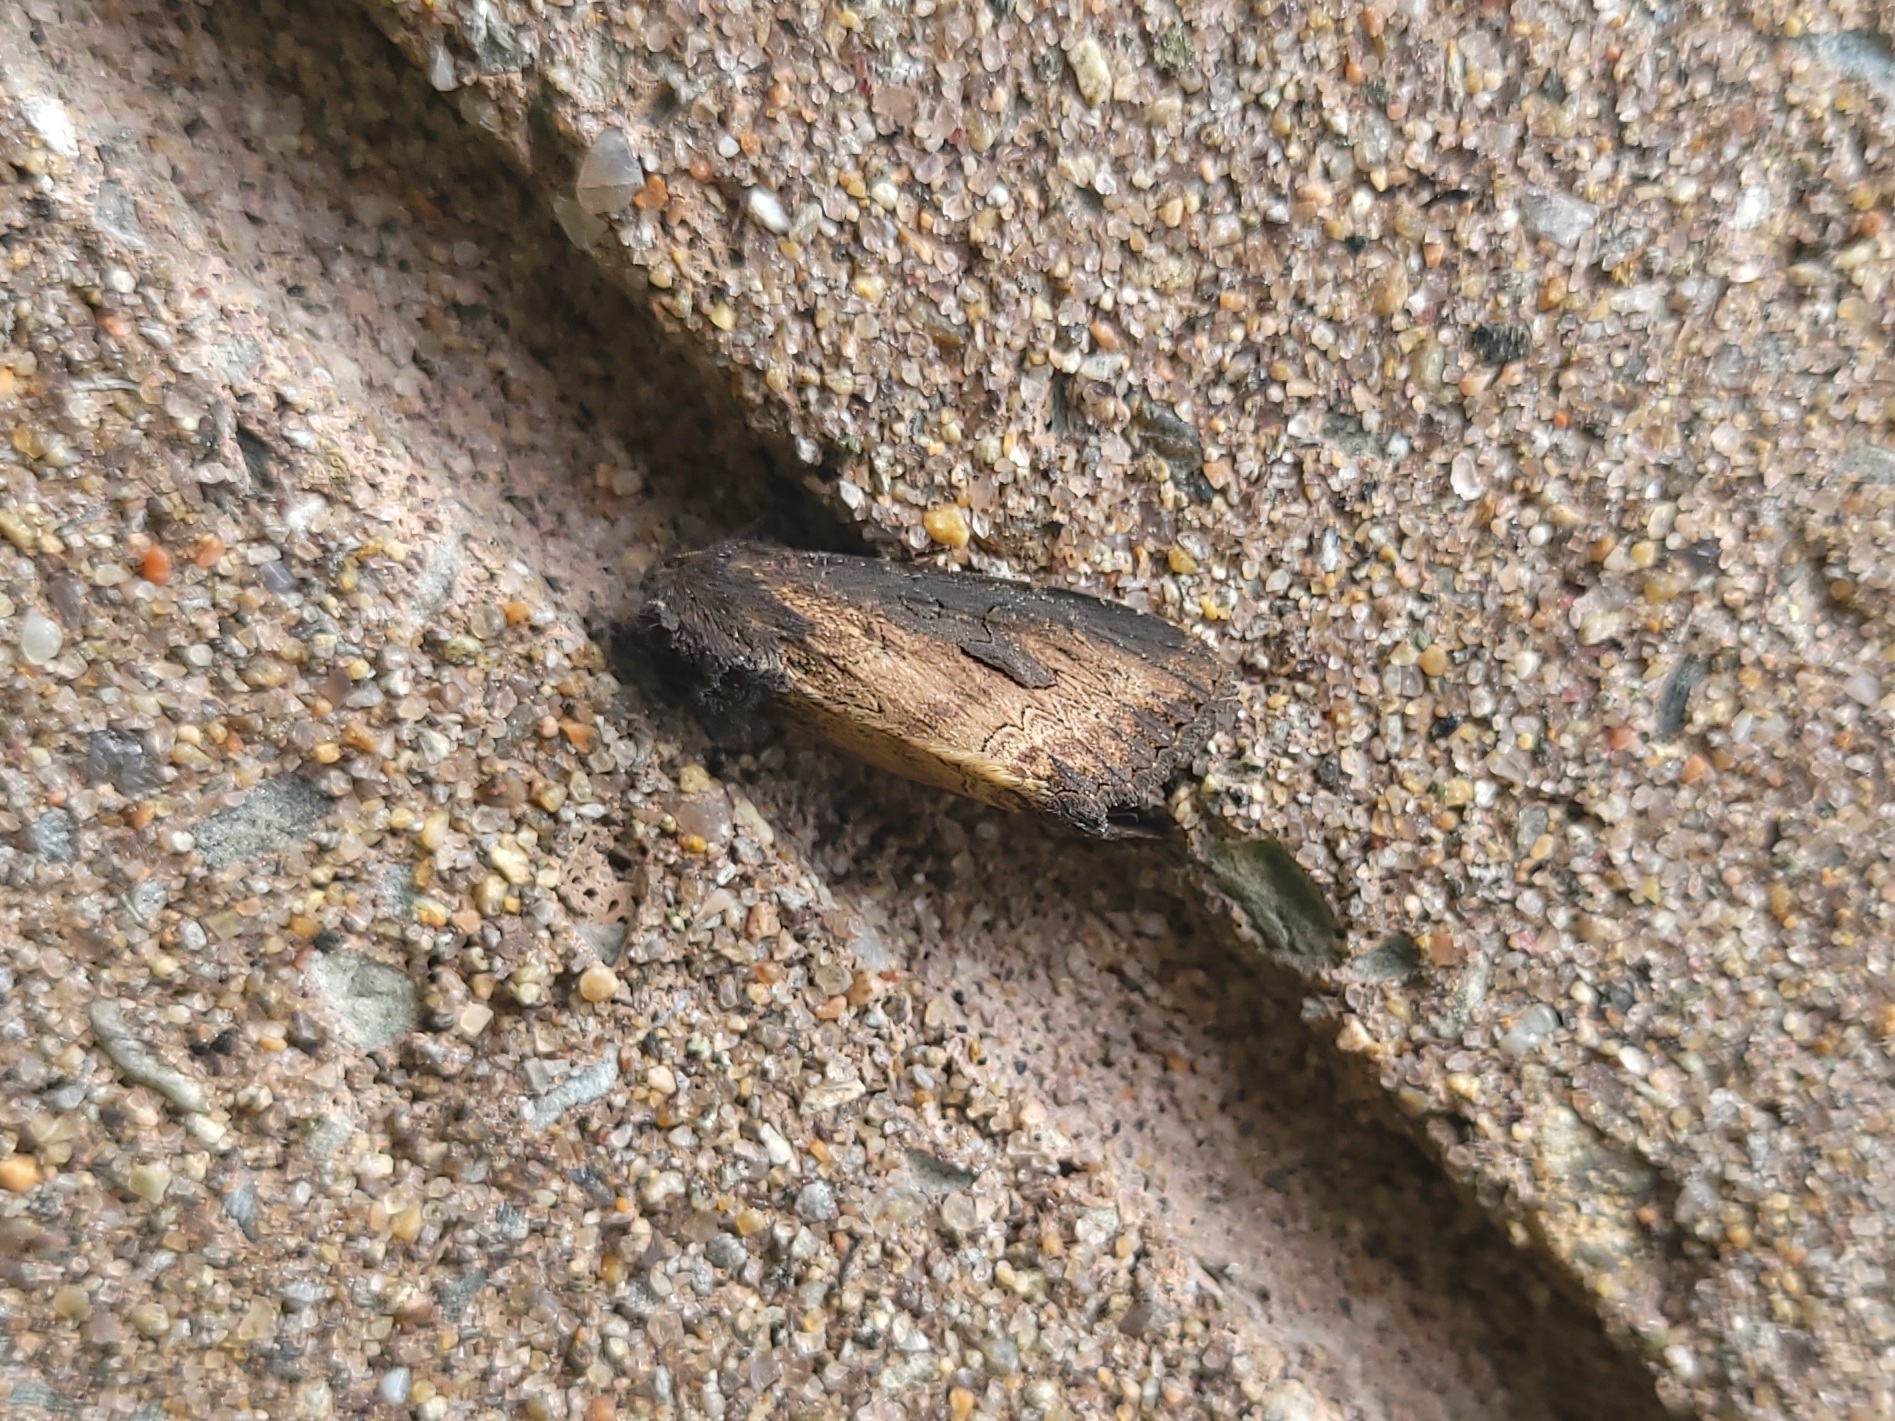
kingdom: Animalia
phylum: Arthropoda
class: Insecta
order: Lepidoptera
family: Noctuidae
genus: Macronoctua
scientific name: Macronoctua onusta
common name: Iris borer
